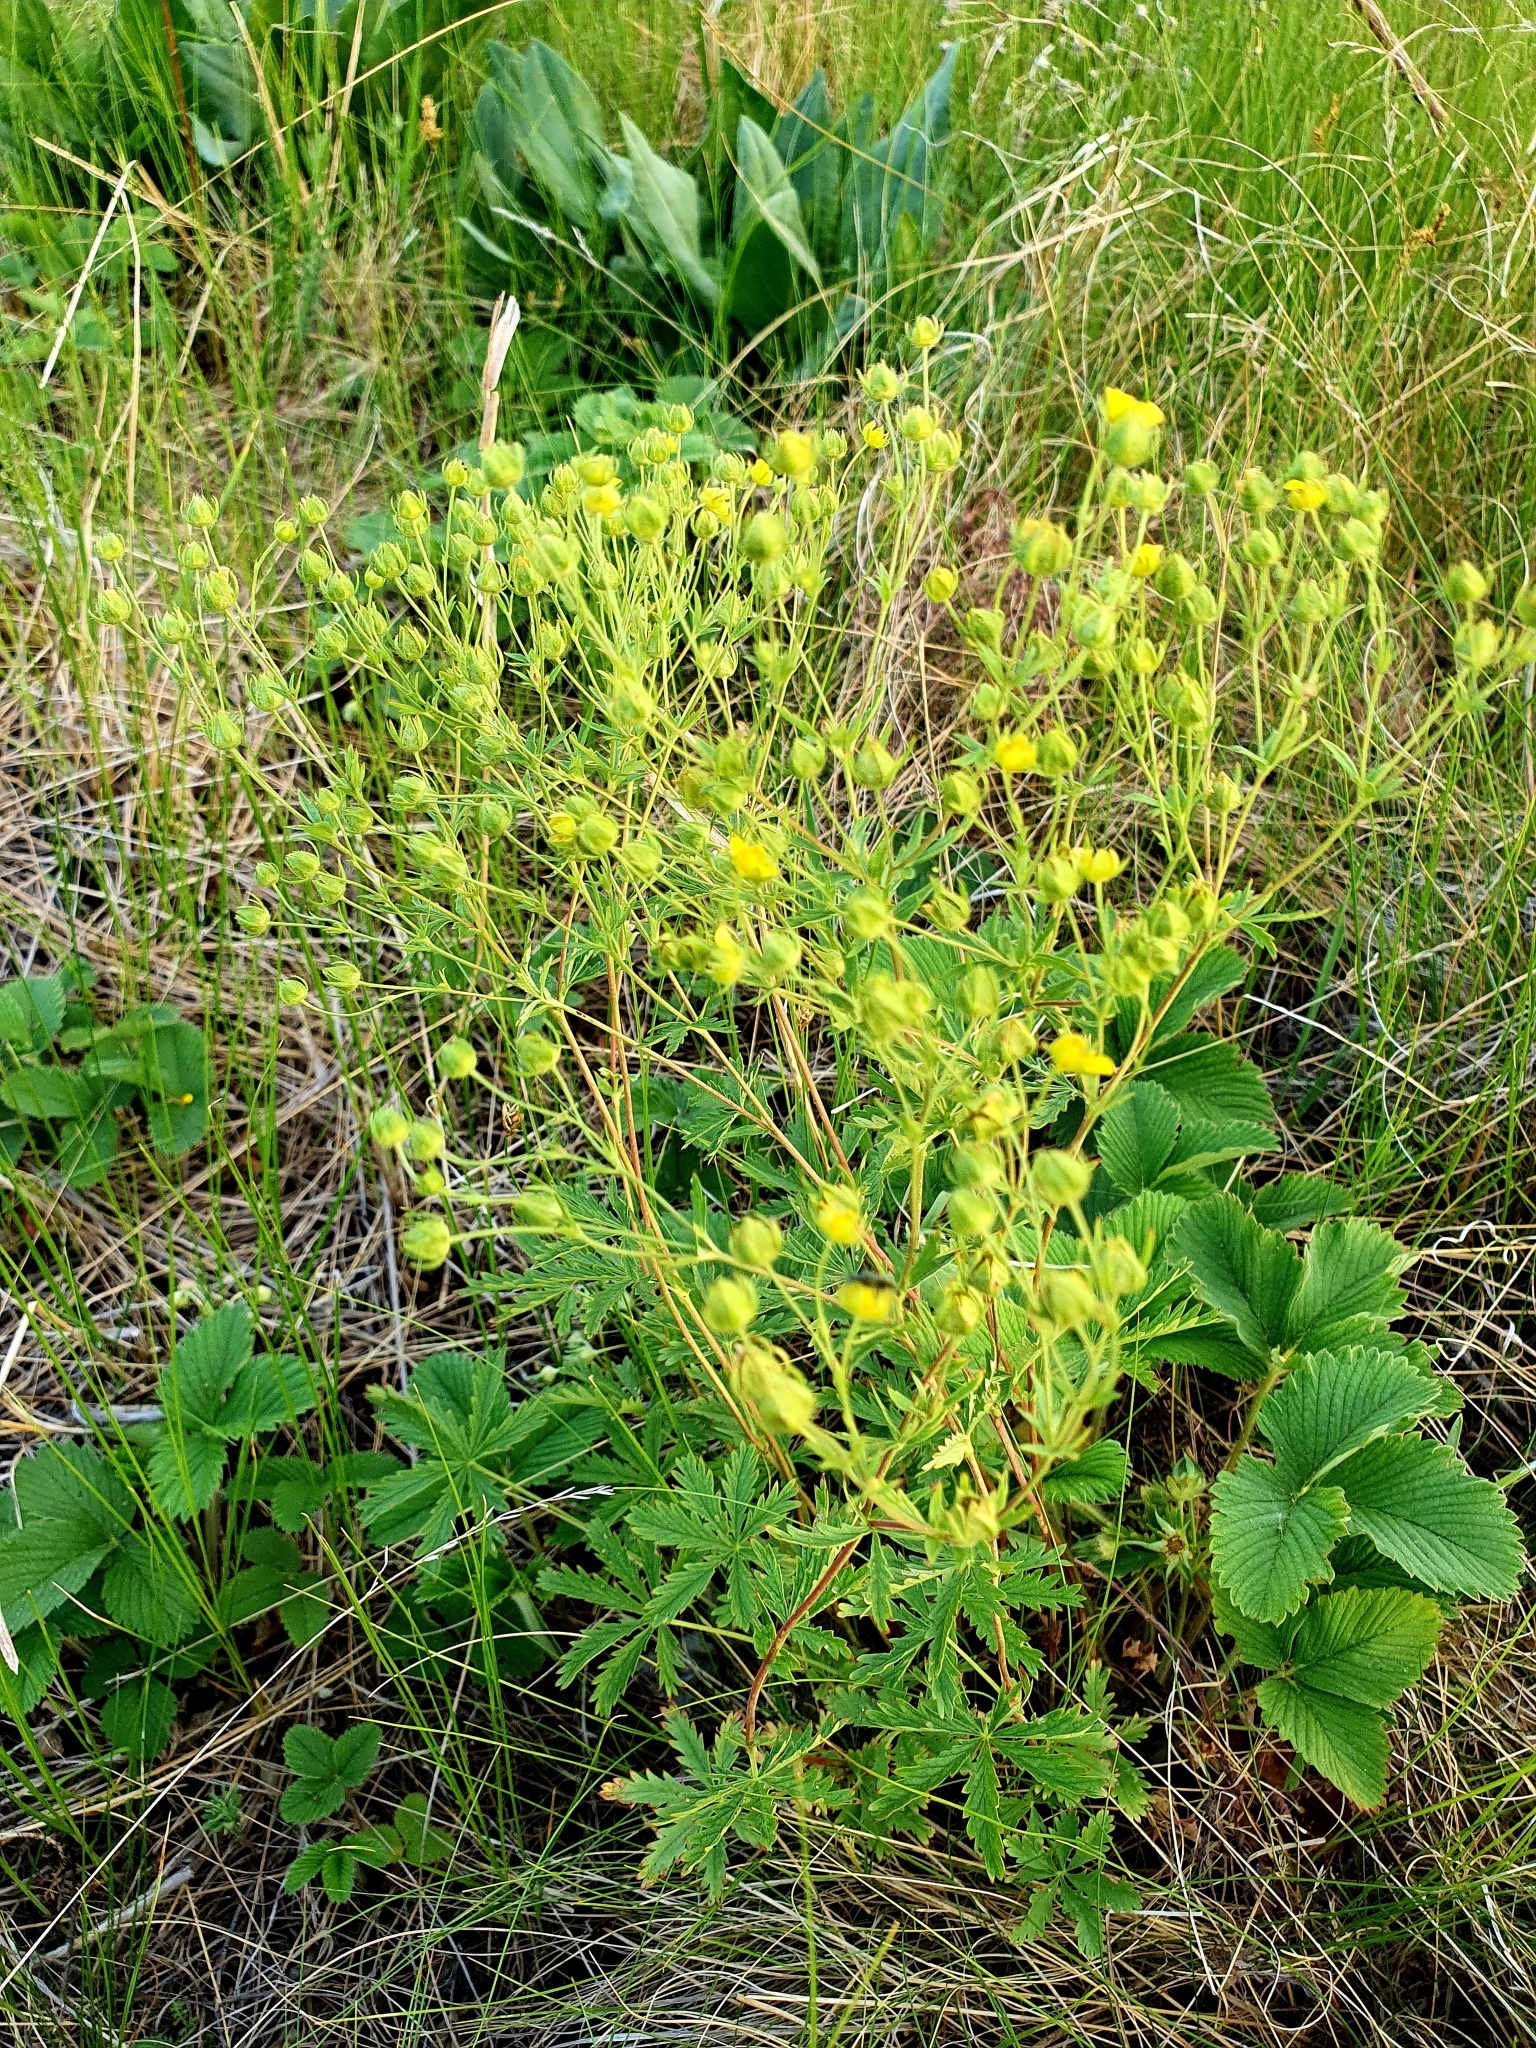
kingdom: Plantae
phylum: Tracheophyta
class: Magnoliopsida
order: Rosales
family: Rosaceae
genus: Potentilla
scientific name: Potentilla longipes
